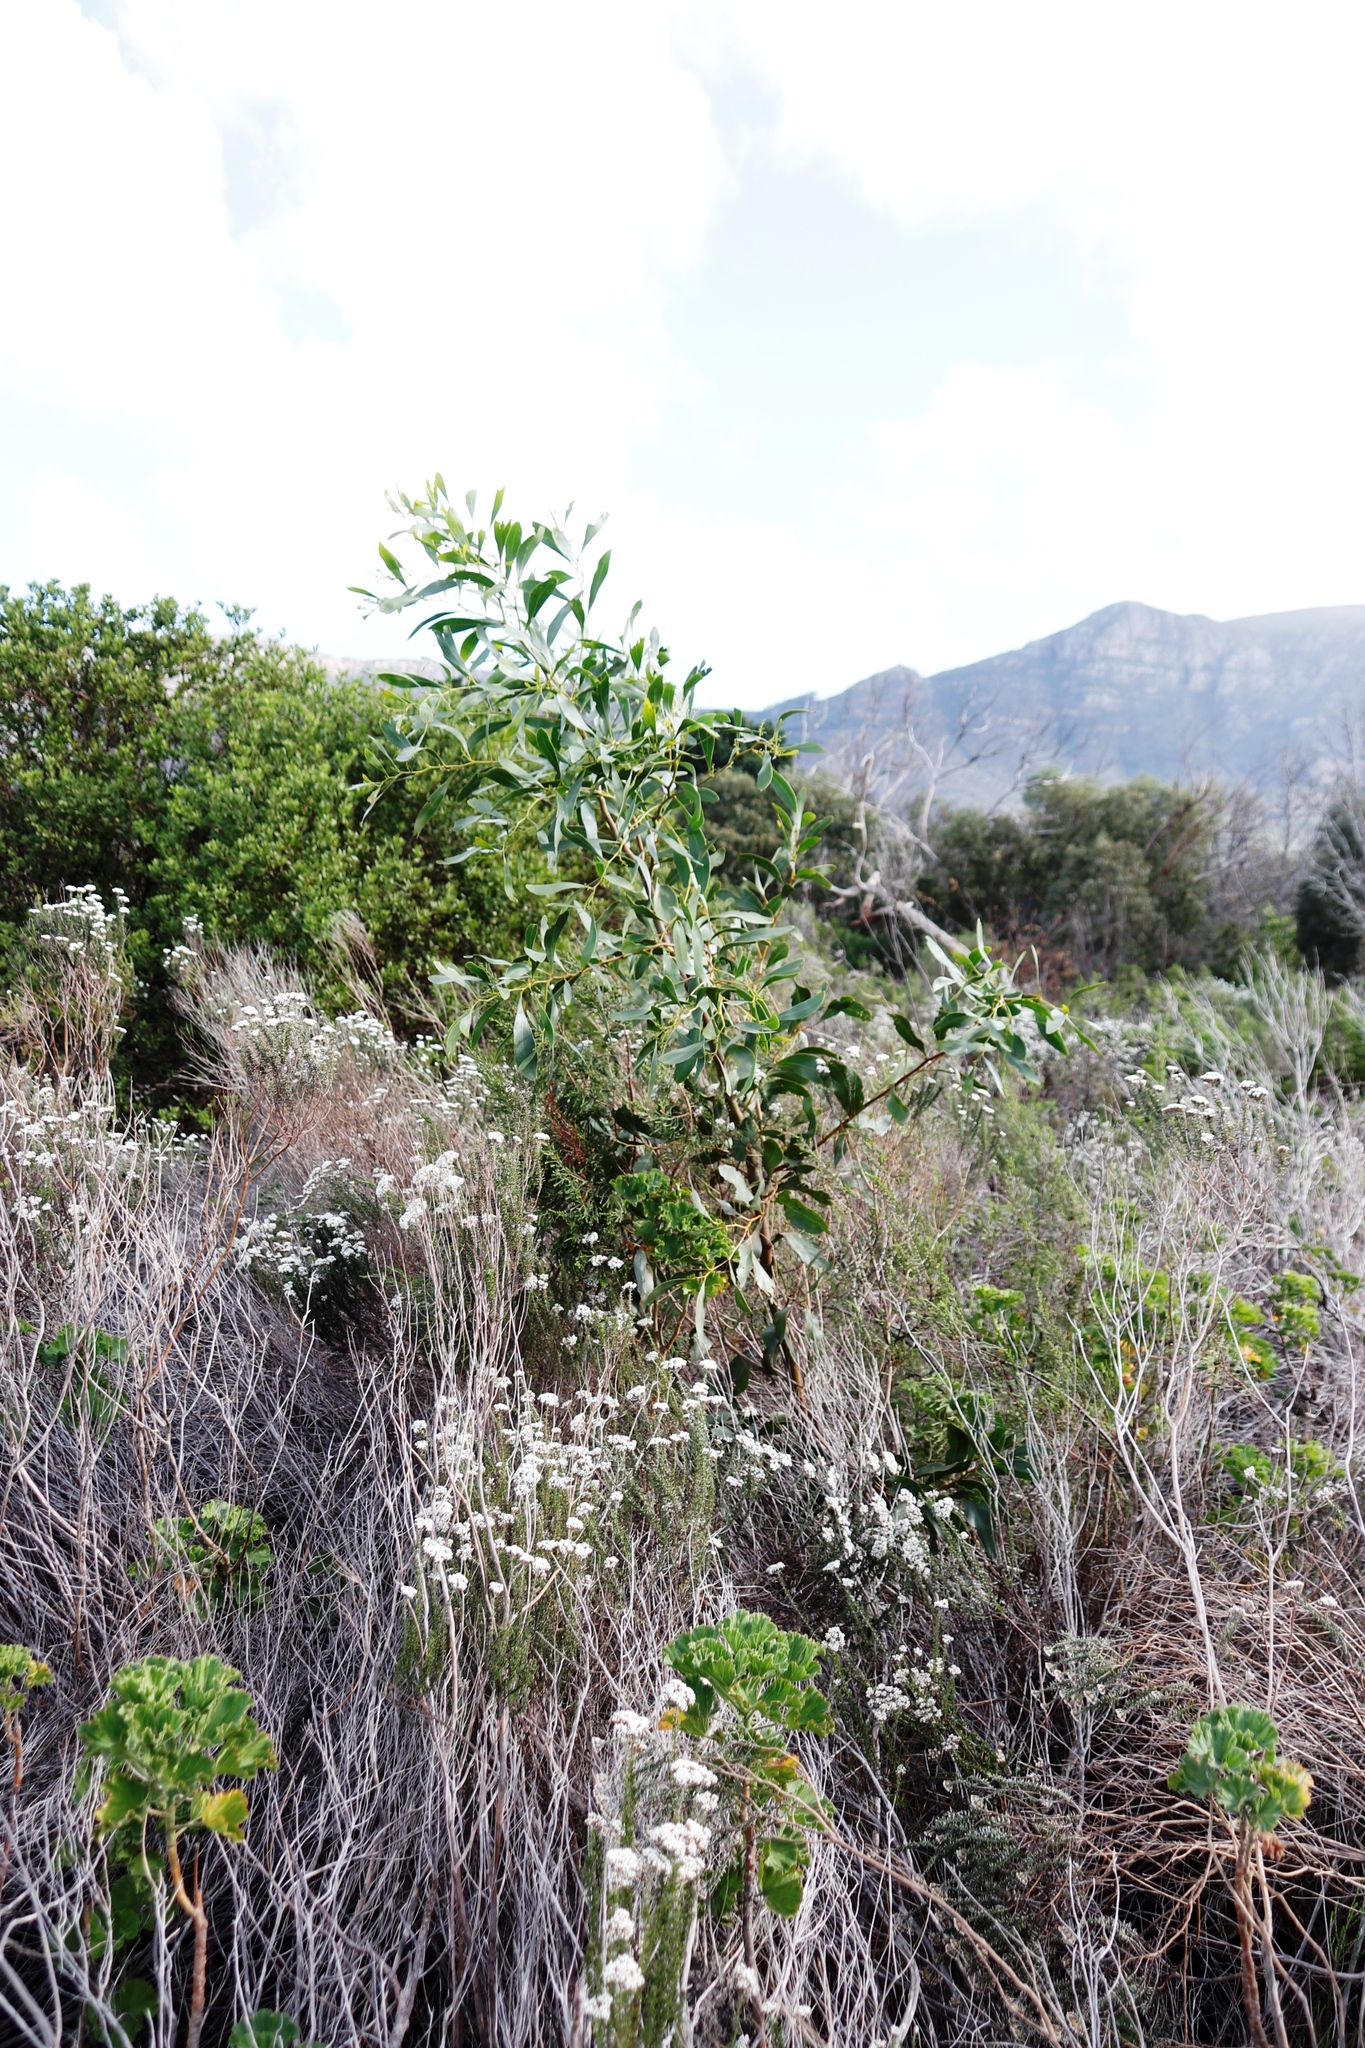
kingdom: Plantae
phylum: Tracheophyta
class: Magnoliopsida
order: Fabales
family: Fabaceae
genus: Acacia
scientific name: Acacia saligna
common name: Orange wattle
